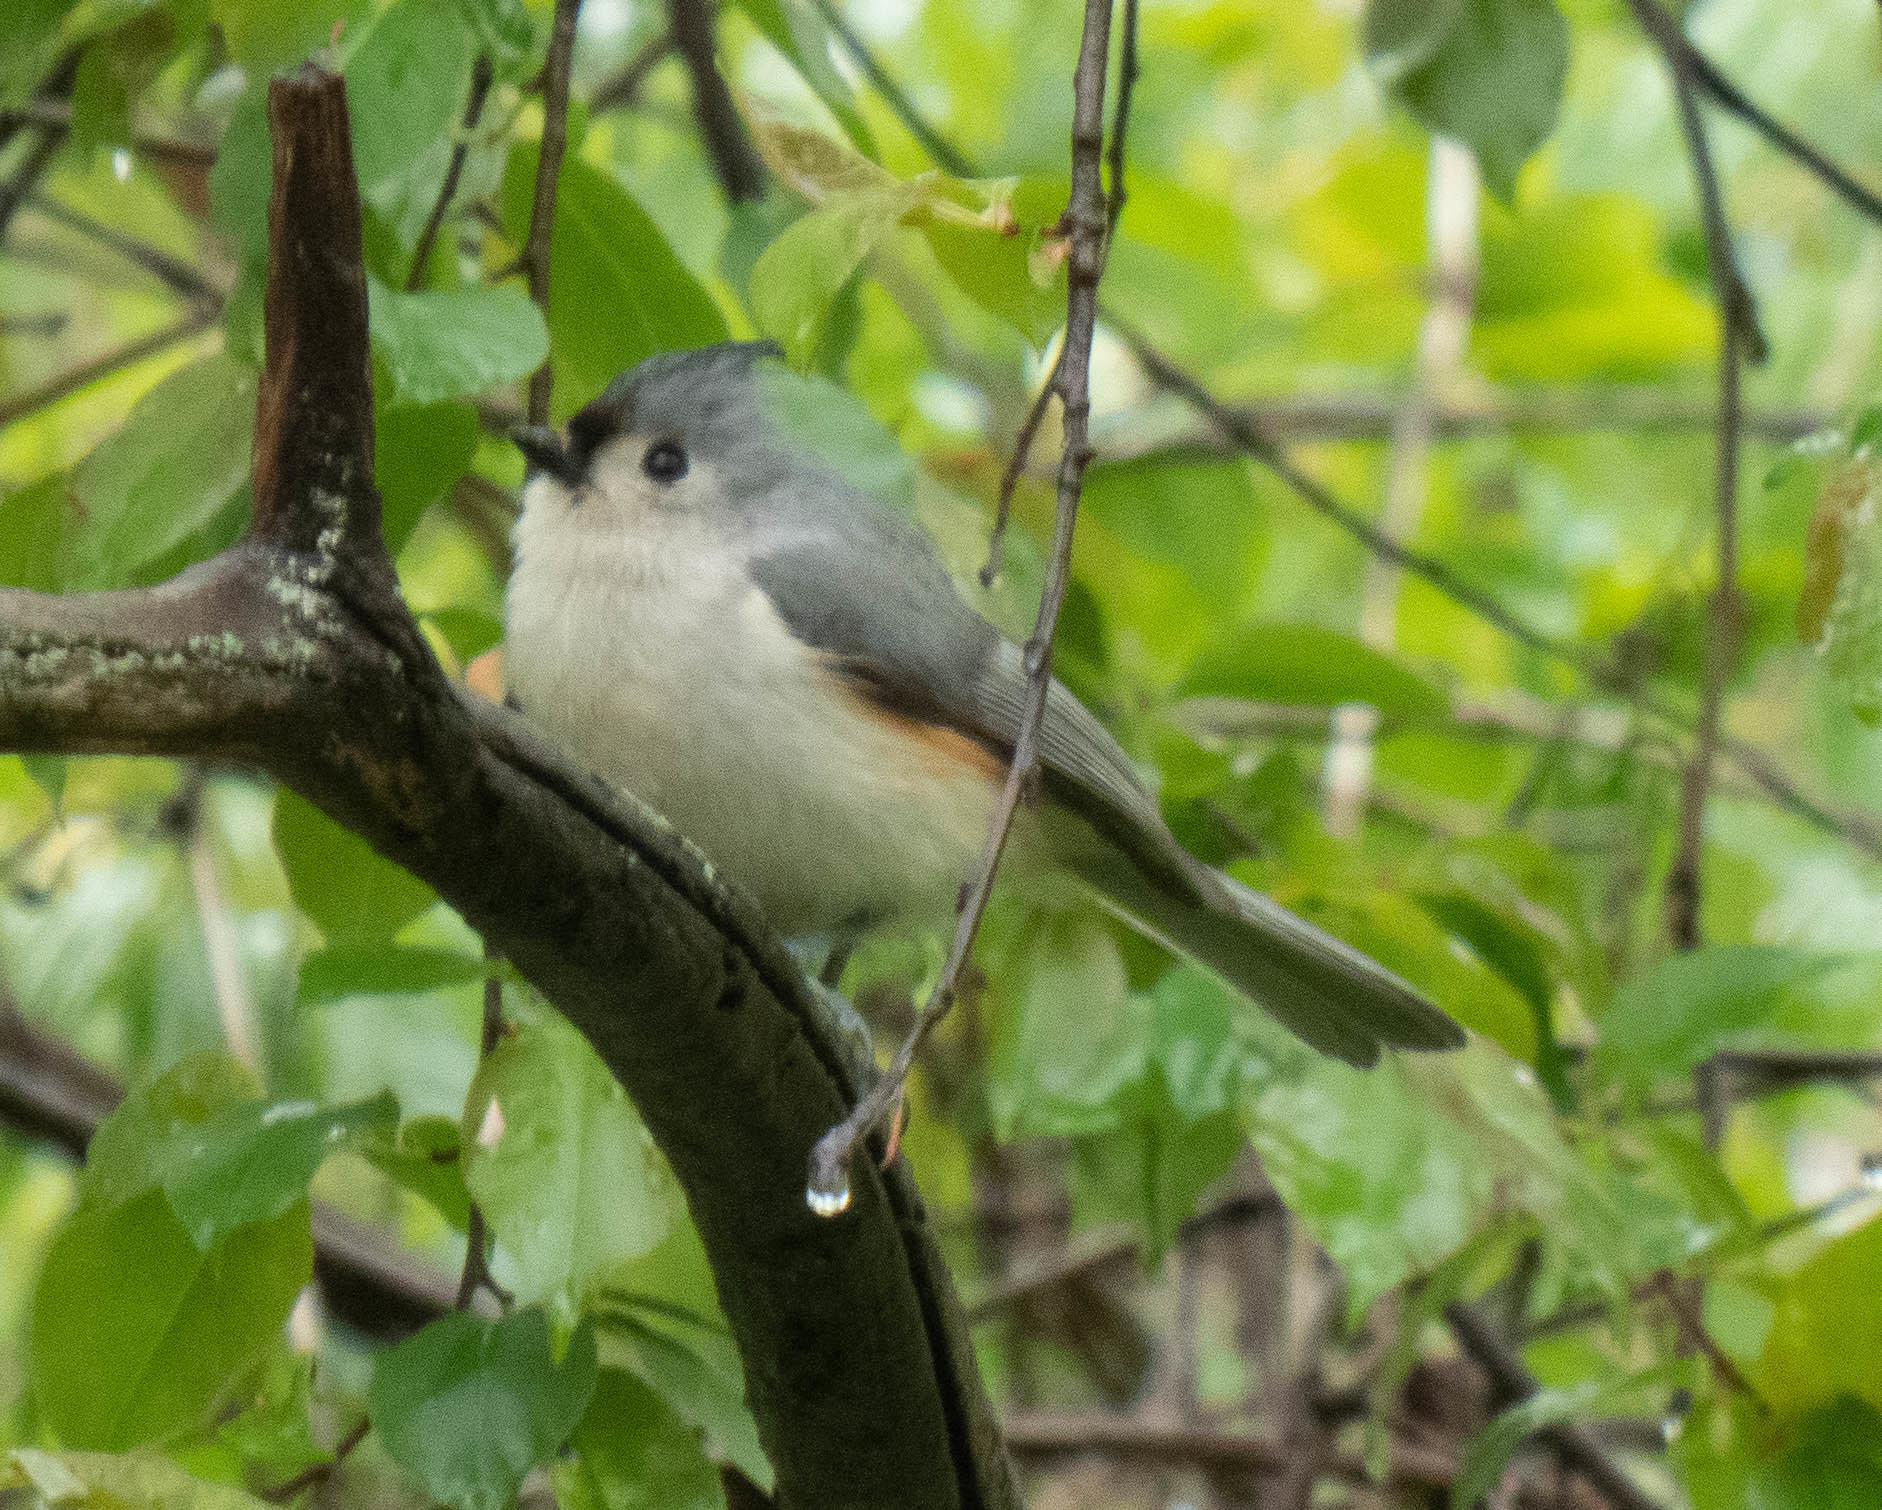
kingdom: Animalia
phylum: Chordata
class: Aves
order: Passeriformes
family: Paridae
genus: Baeolophus
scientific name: Baeolophus bicolor
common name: Tufted titmouse
